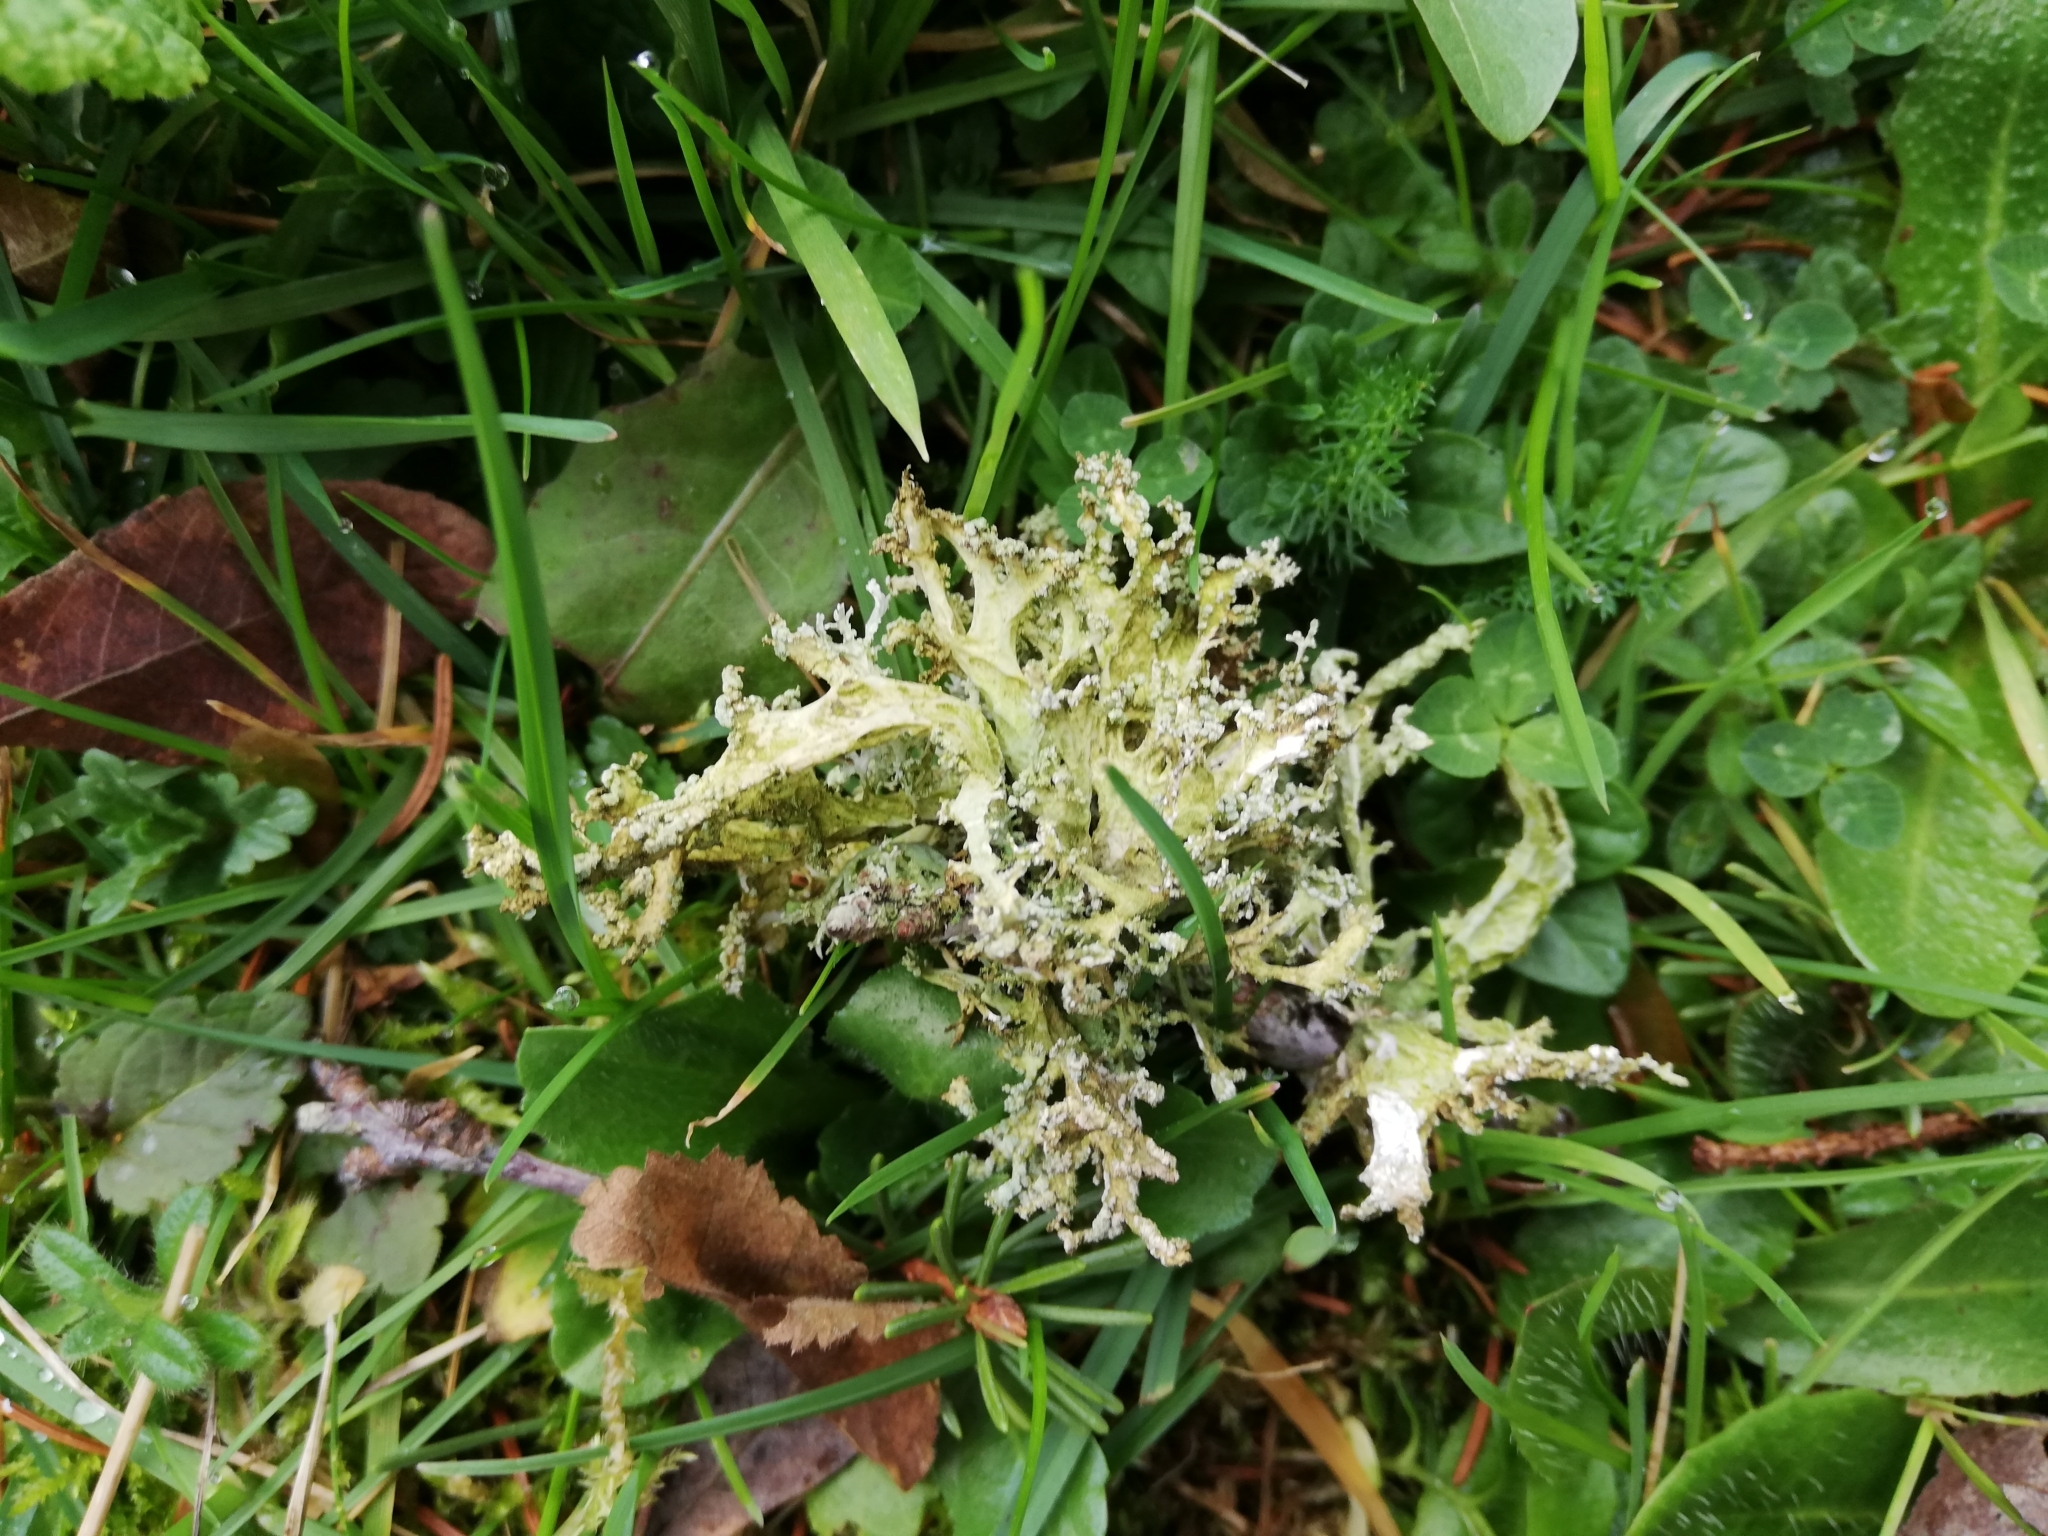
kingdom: Fungi
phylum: Ascomycota
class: Lecanoromycetes
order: Lecanorales
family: Parmeliaceae
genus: Evernia
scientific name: Evernia prunastri
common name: Oak moss
